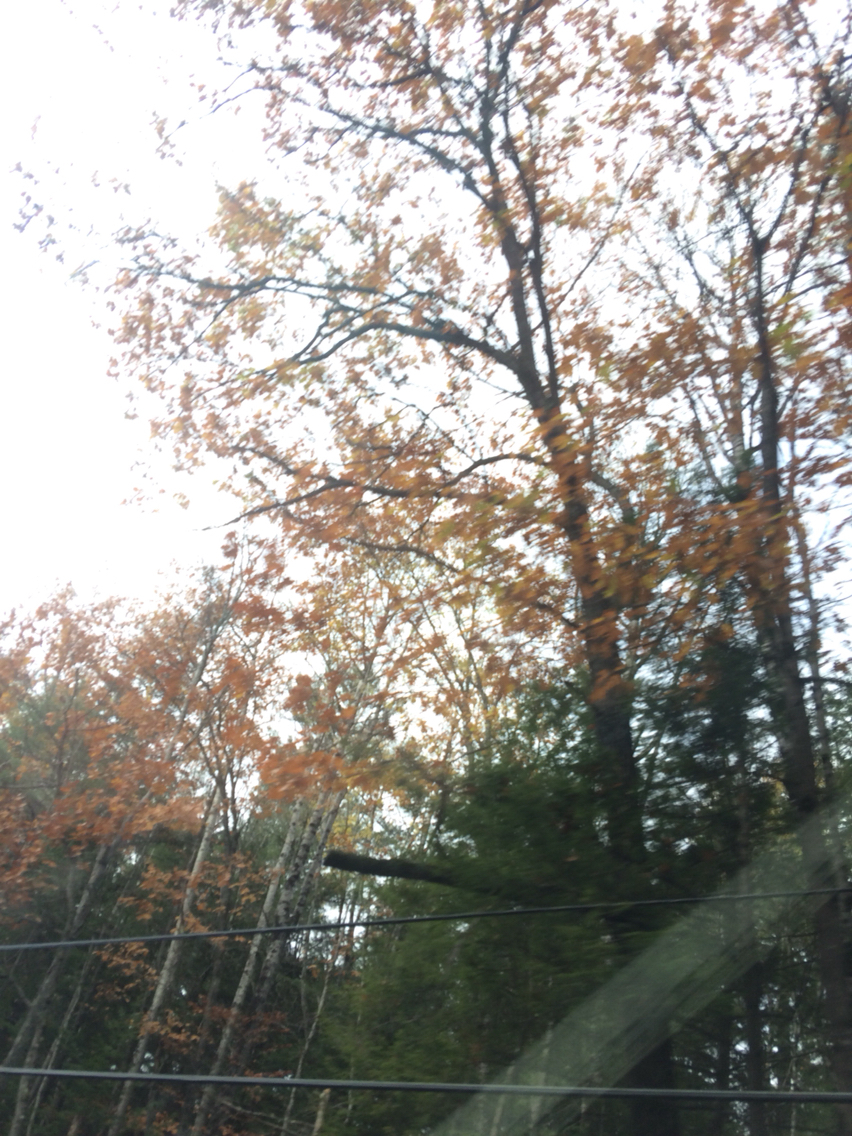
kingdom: Plantae
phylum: Tracheophyta
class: Magnoliopsida
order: Fagales
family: Fagaceae
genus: Quercus
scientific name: Quercus rubra
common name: Red oak
